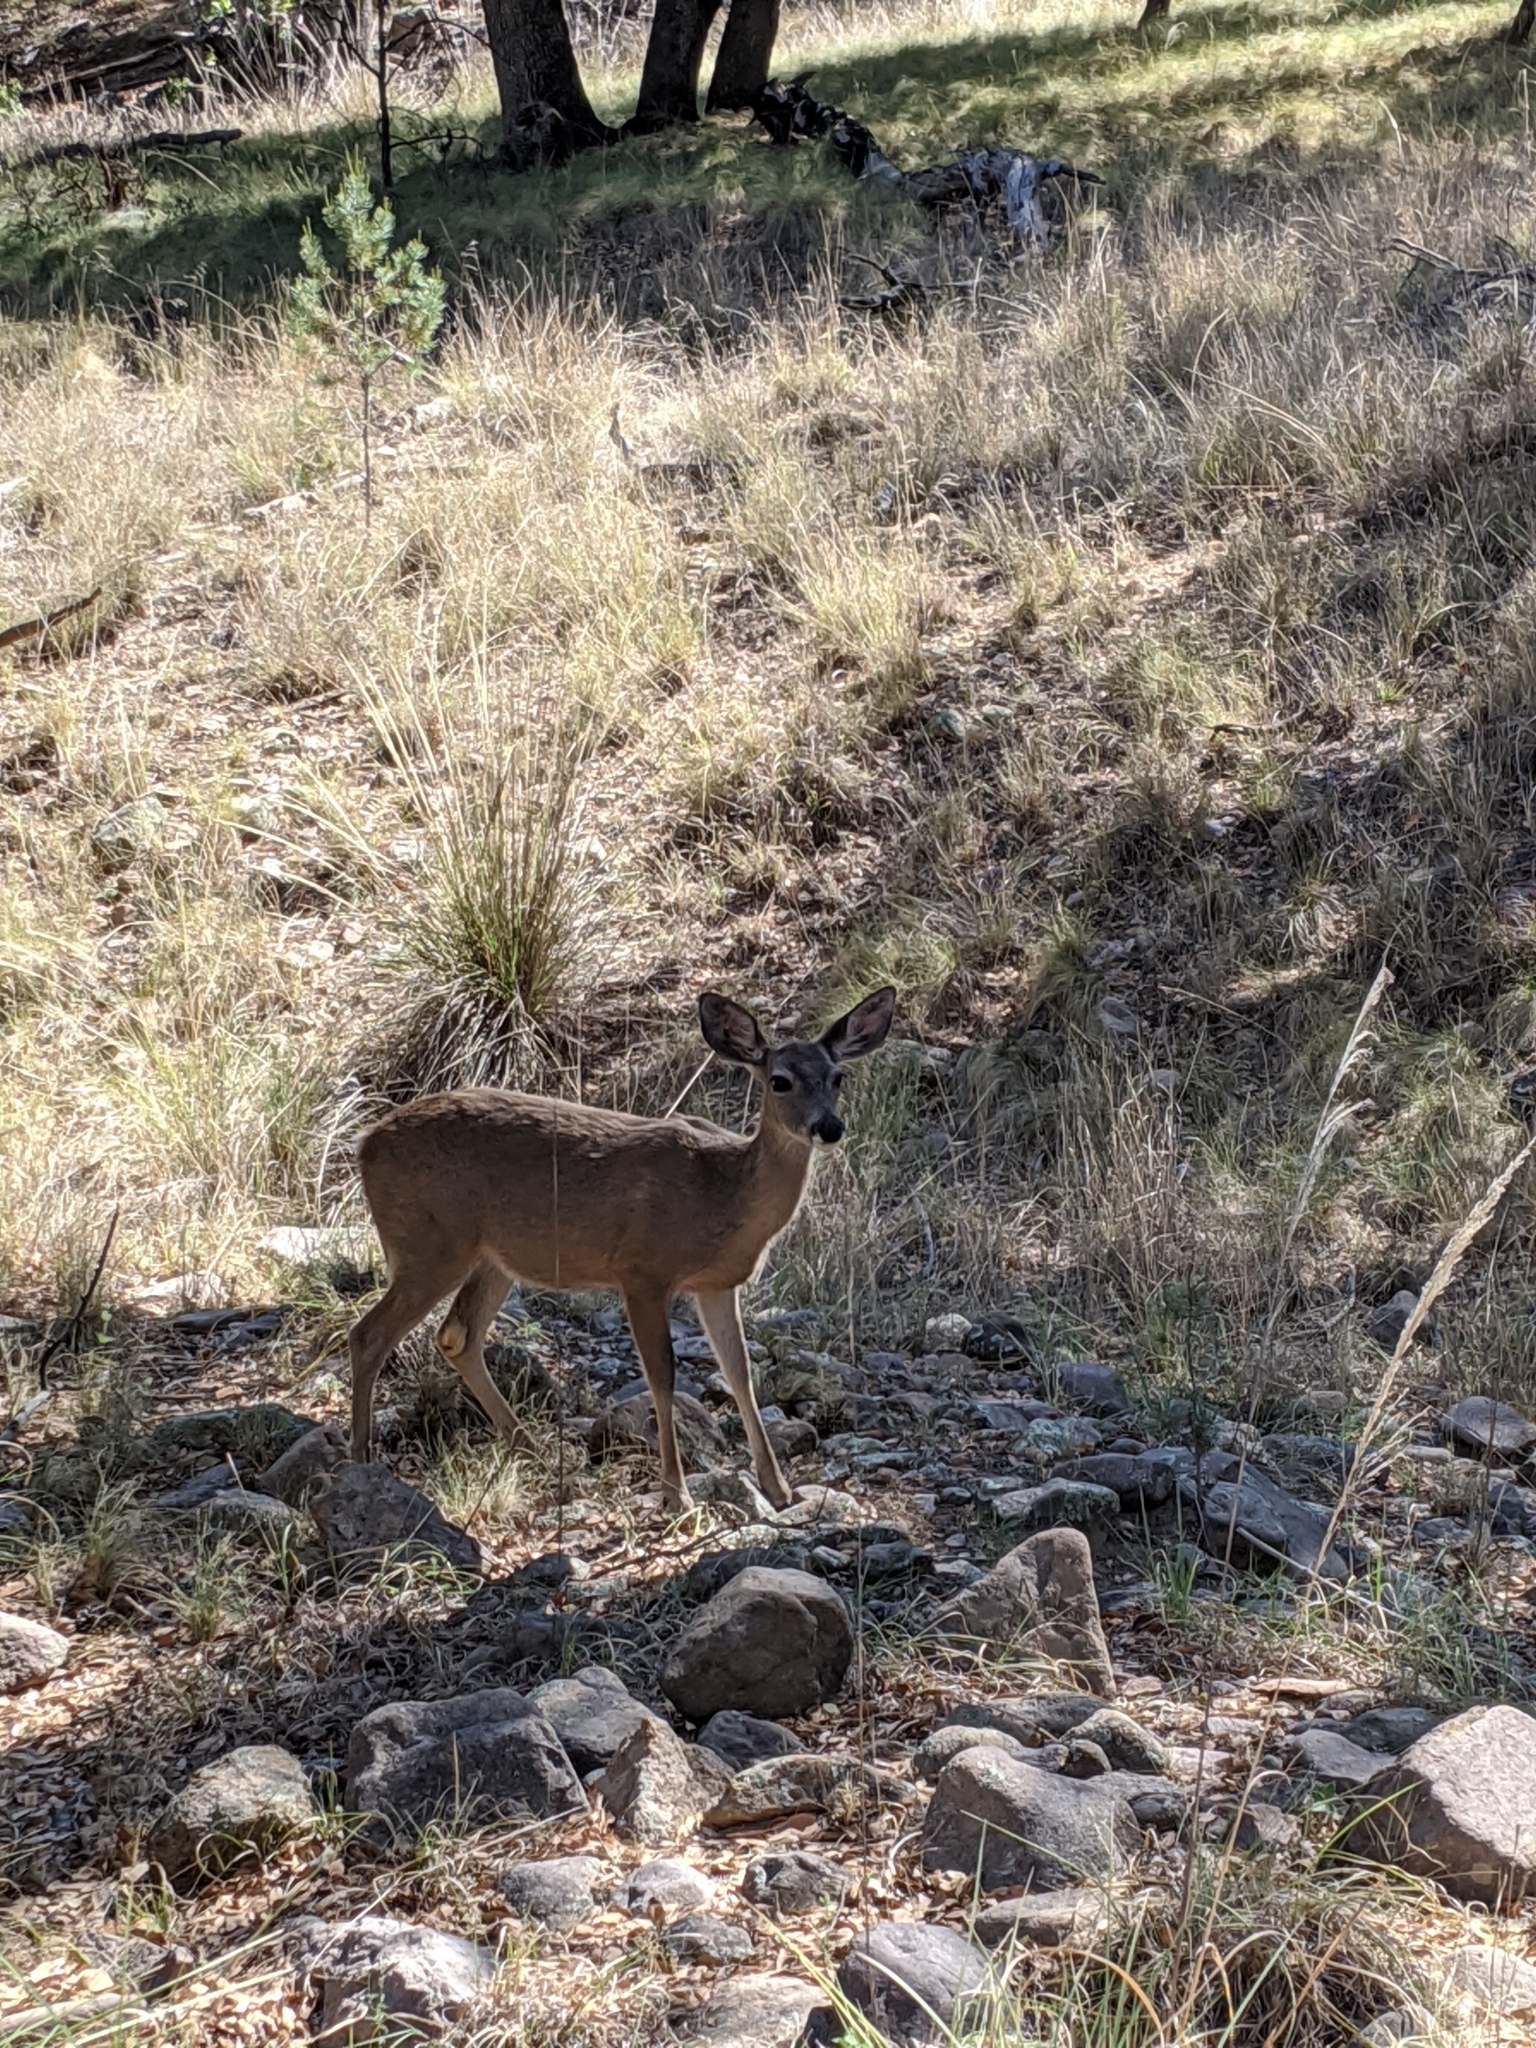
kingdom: Animalia
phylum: Chordata
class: Mammalia
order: Artiodactyla
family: Cervidae
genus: Odocoileus
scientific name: Odocoileus virginianus
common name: White-tailed deer
